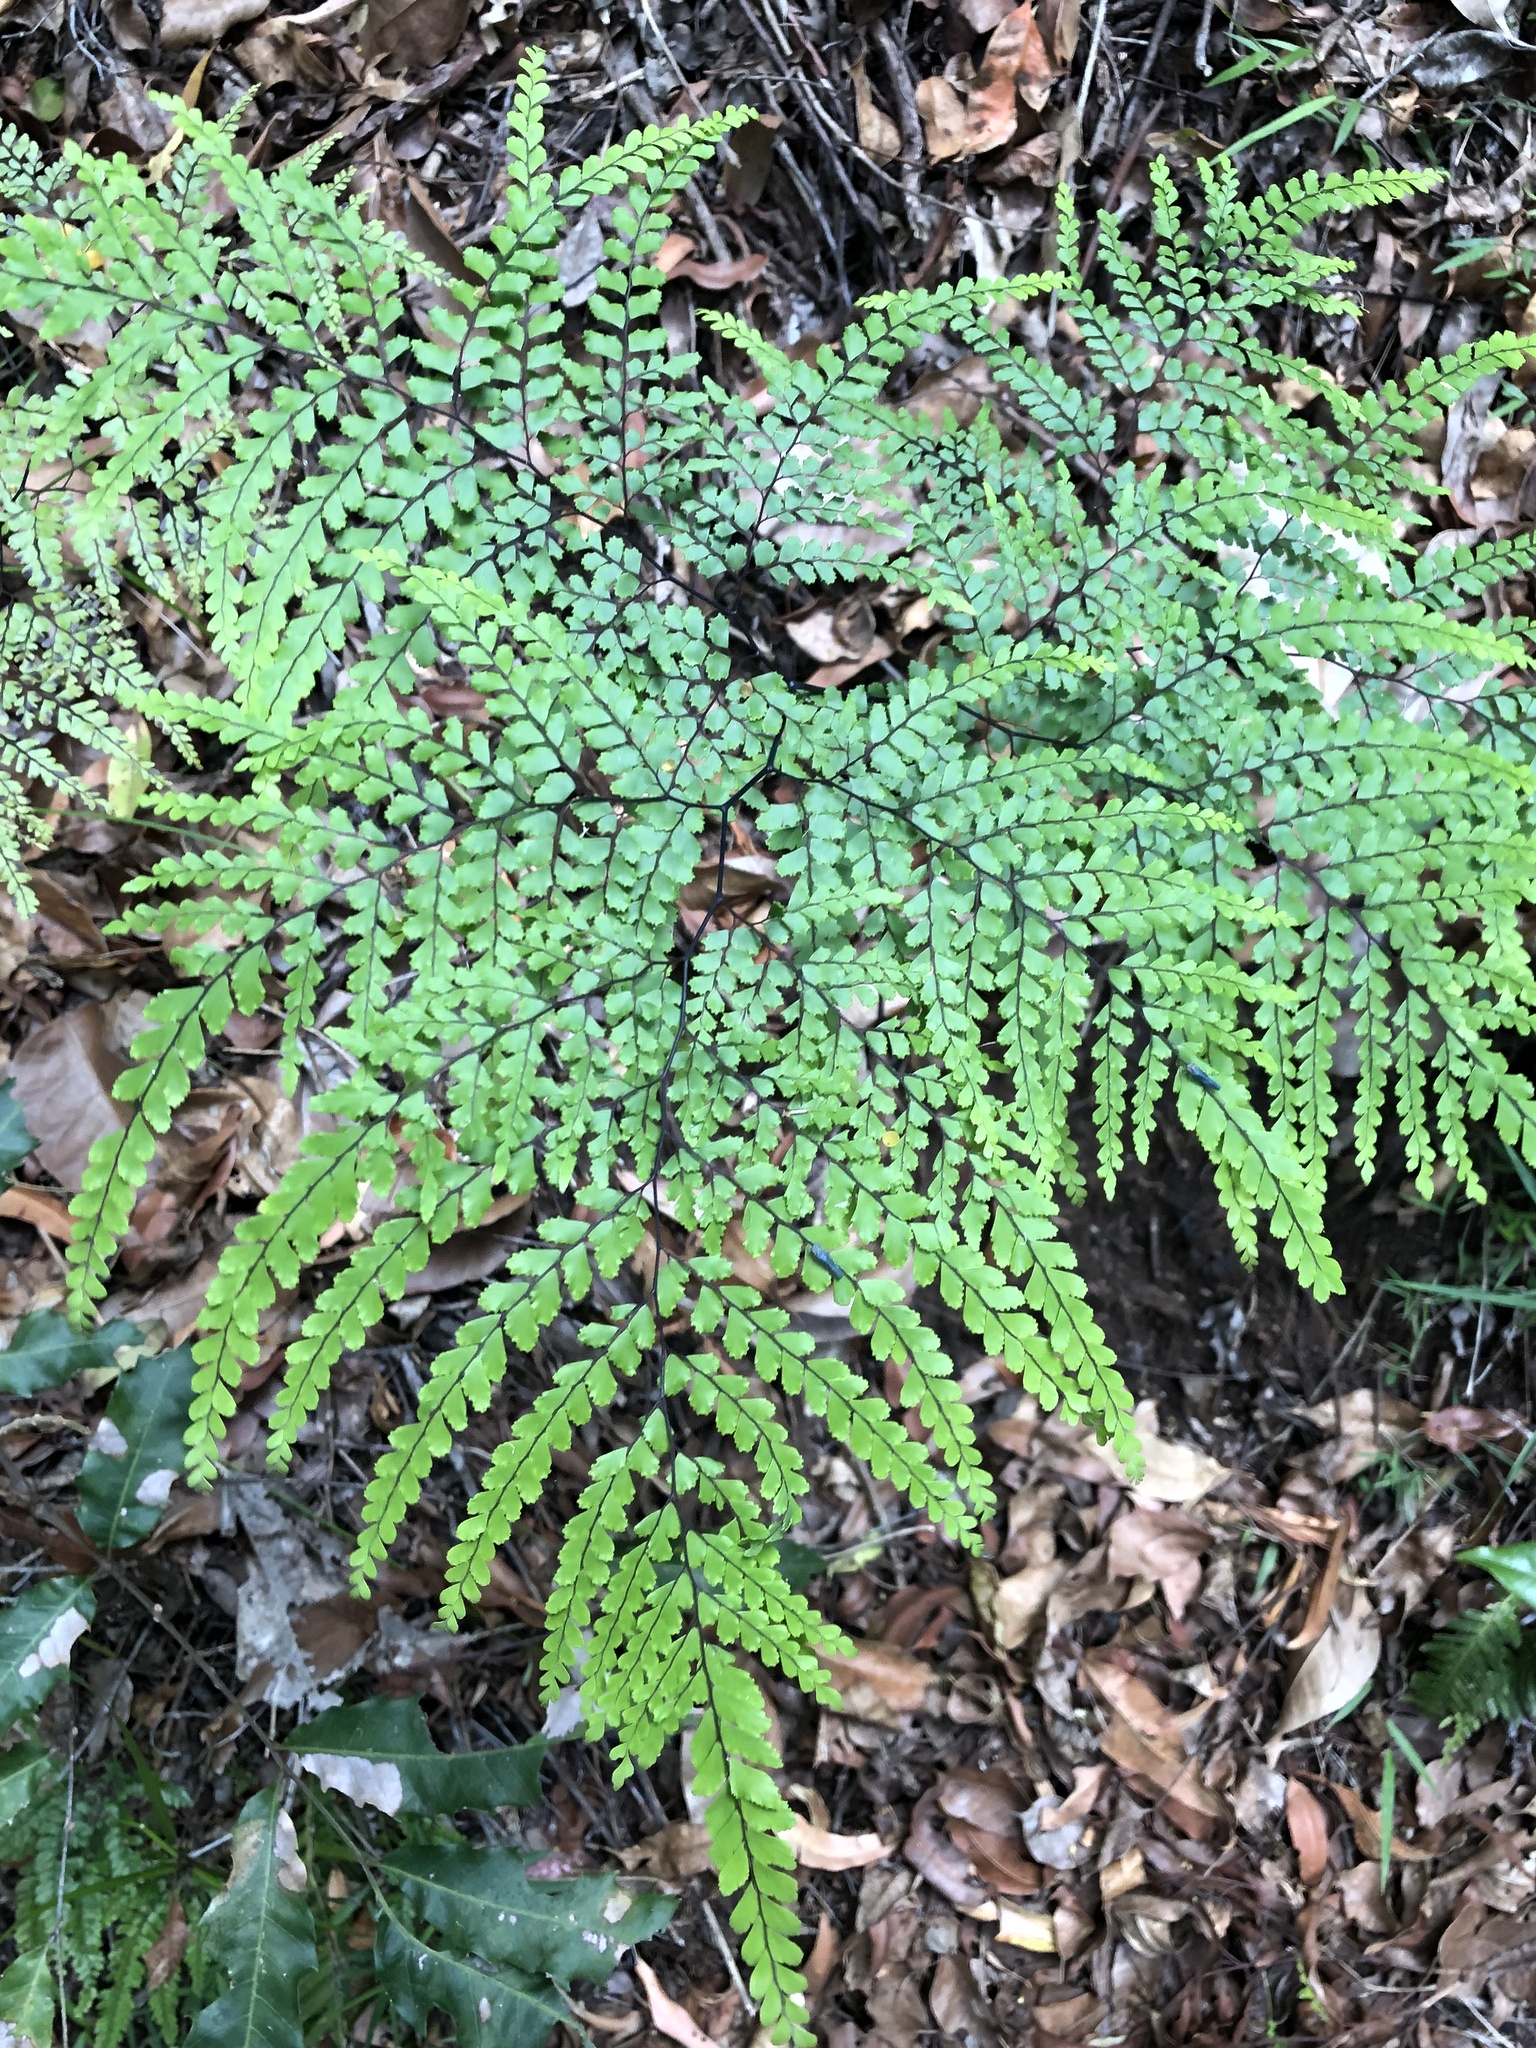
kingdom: Plantae
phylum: Tracheophyta
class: Polypodiopsida
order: Polypodiales
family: Pteridaceae
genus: Adiantum
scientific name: Adiantum formosum
